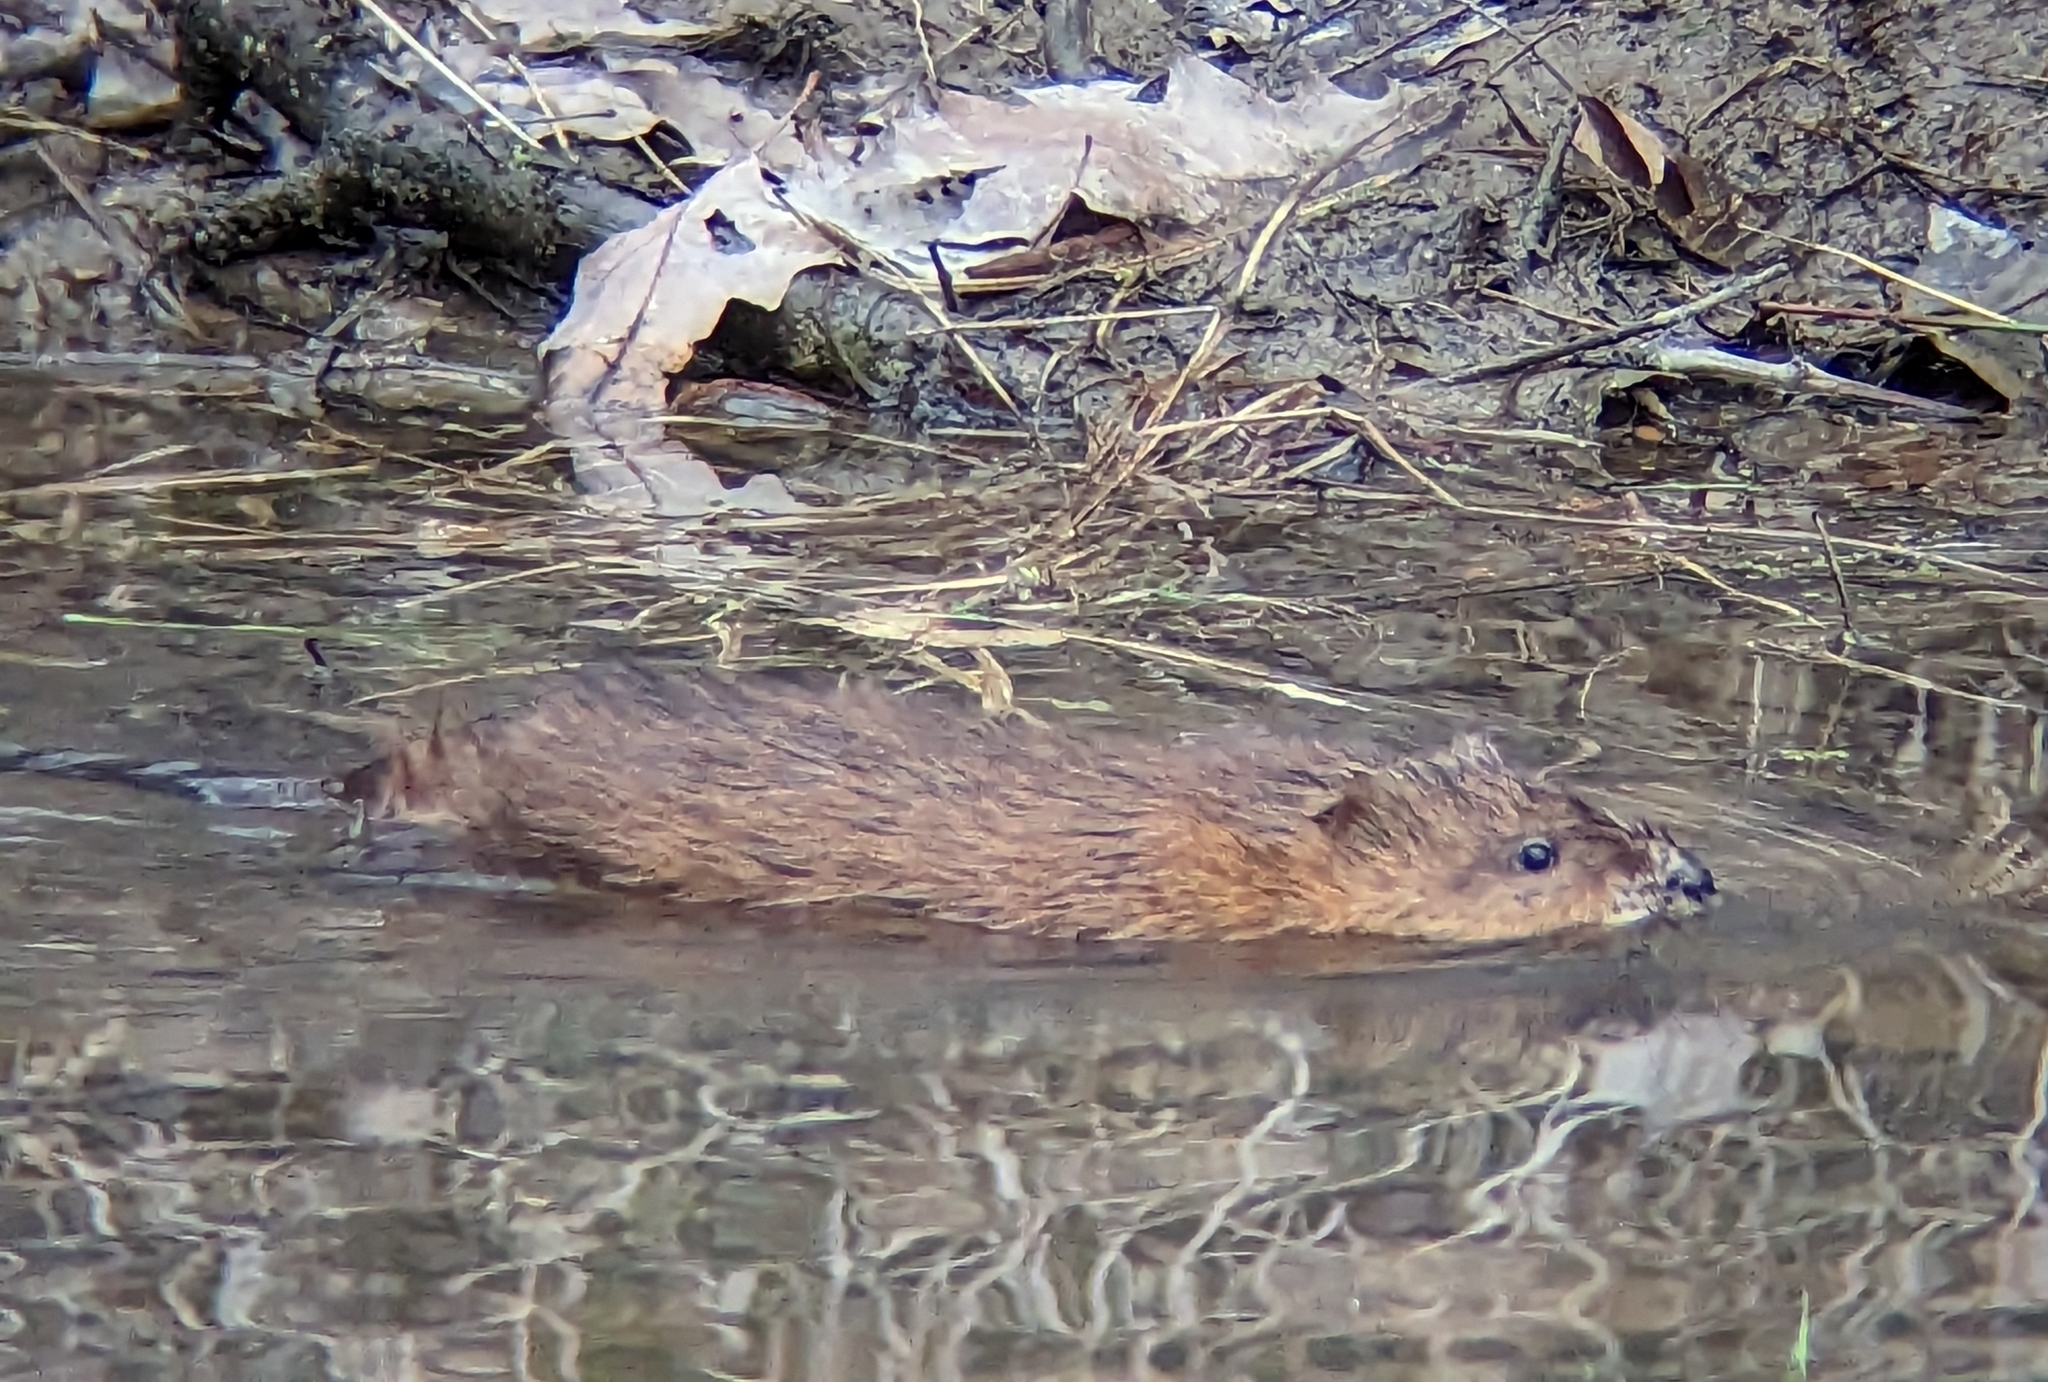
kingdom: Animalia
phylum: Chordata
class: Mammalia
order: Rodentia
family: Cricetidae
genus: Ondatra
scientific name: Ondatra zibethicus
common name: Muskrat
